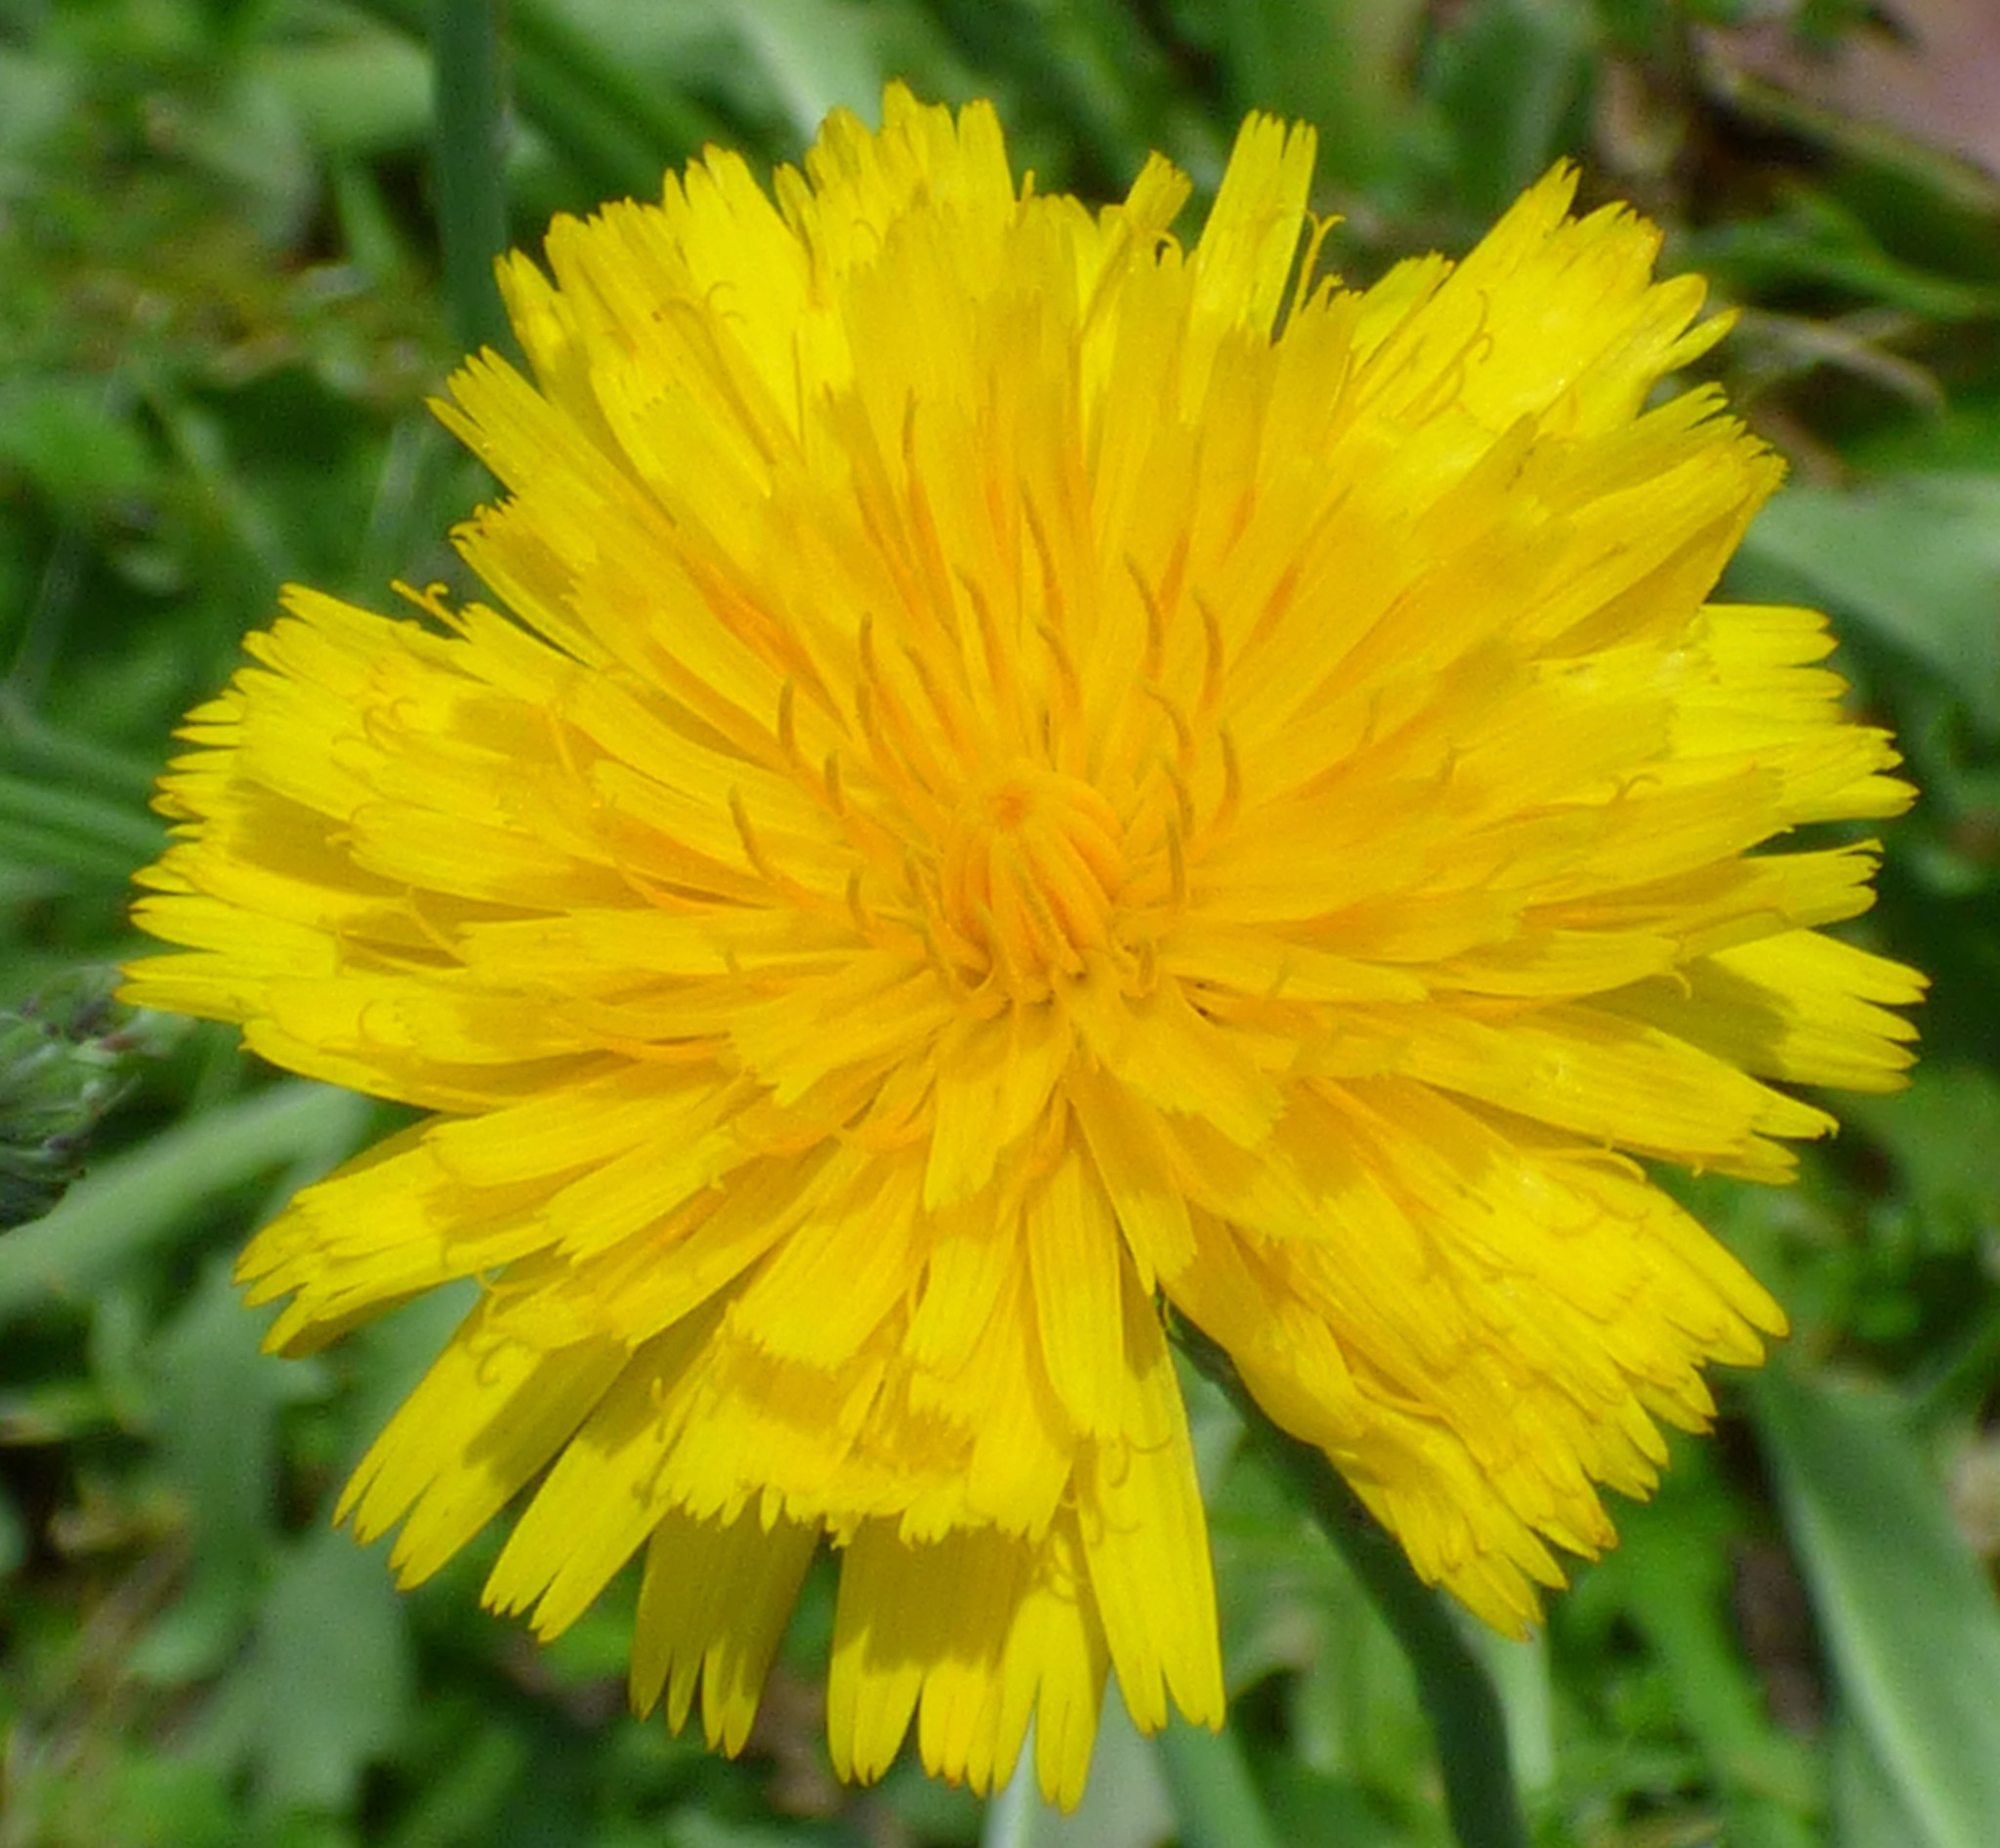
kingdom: Plantae
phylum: Tracheophyta
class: Magnoliopsida
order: Asterales
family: Asteraceae
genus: Hypochaeris
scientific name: Hypochaeris radicata
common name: Flatweed
